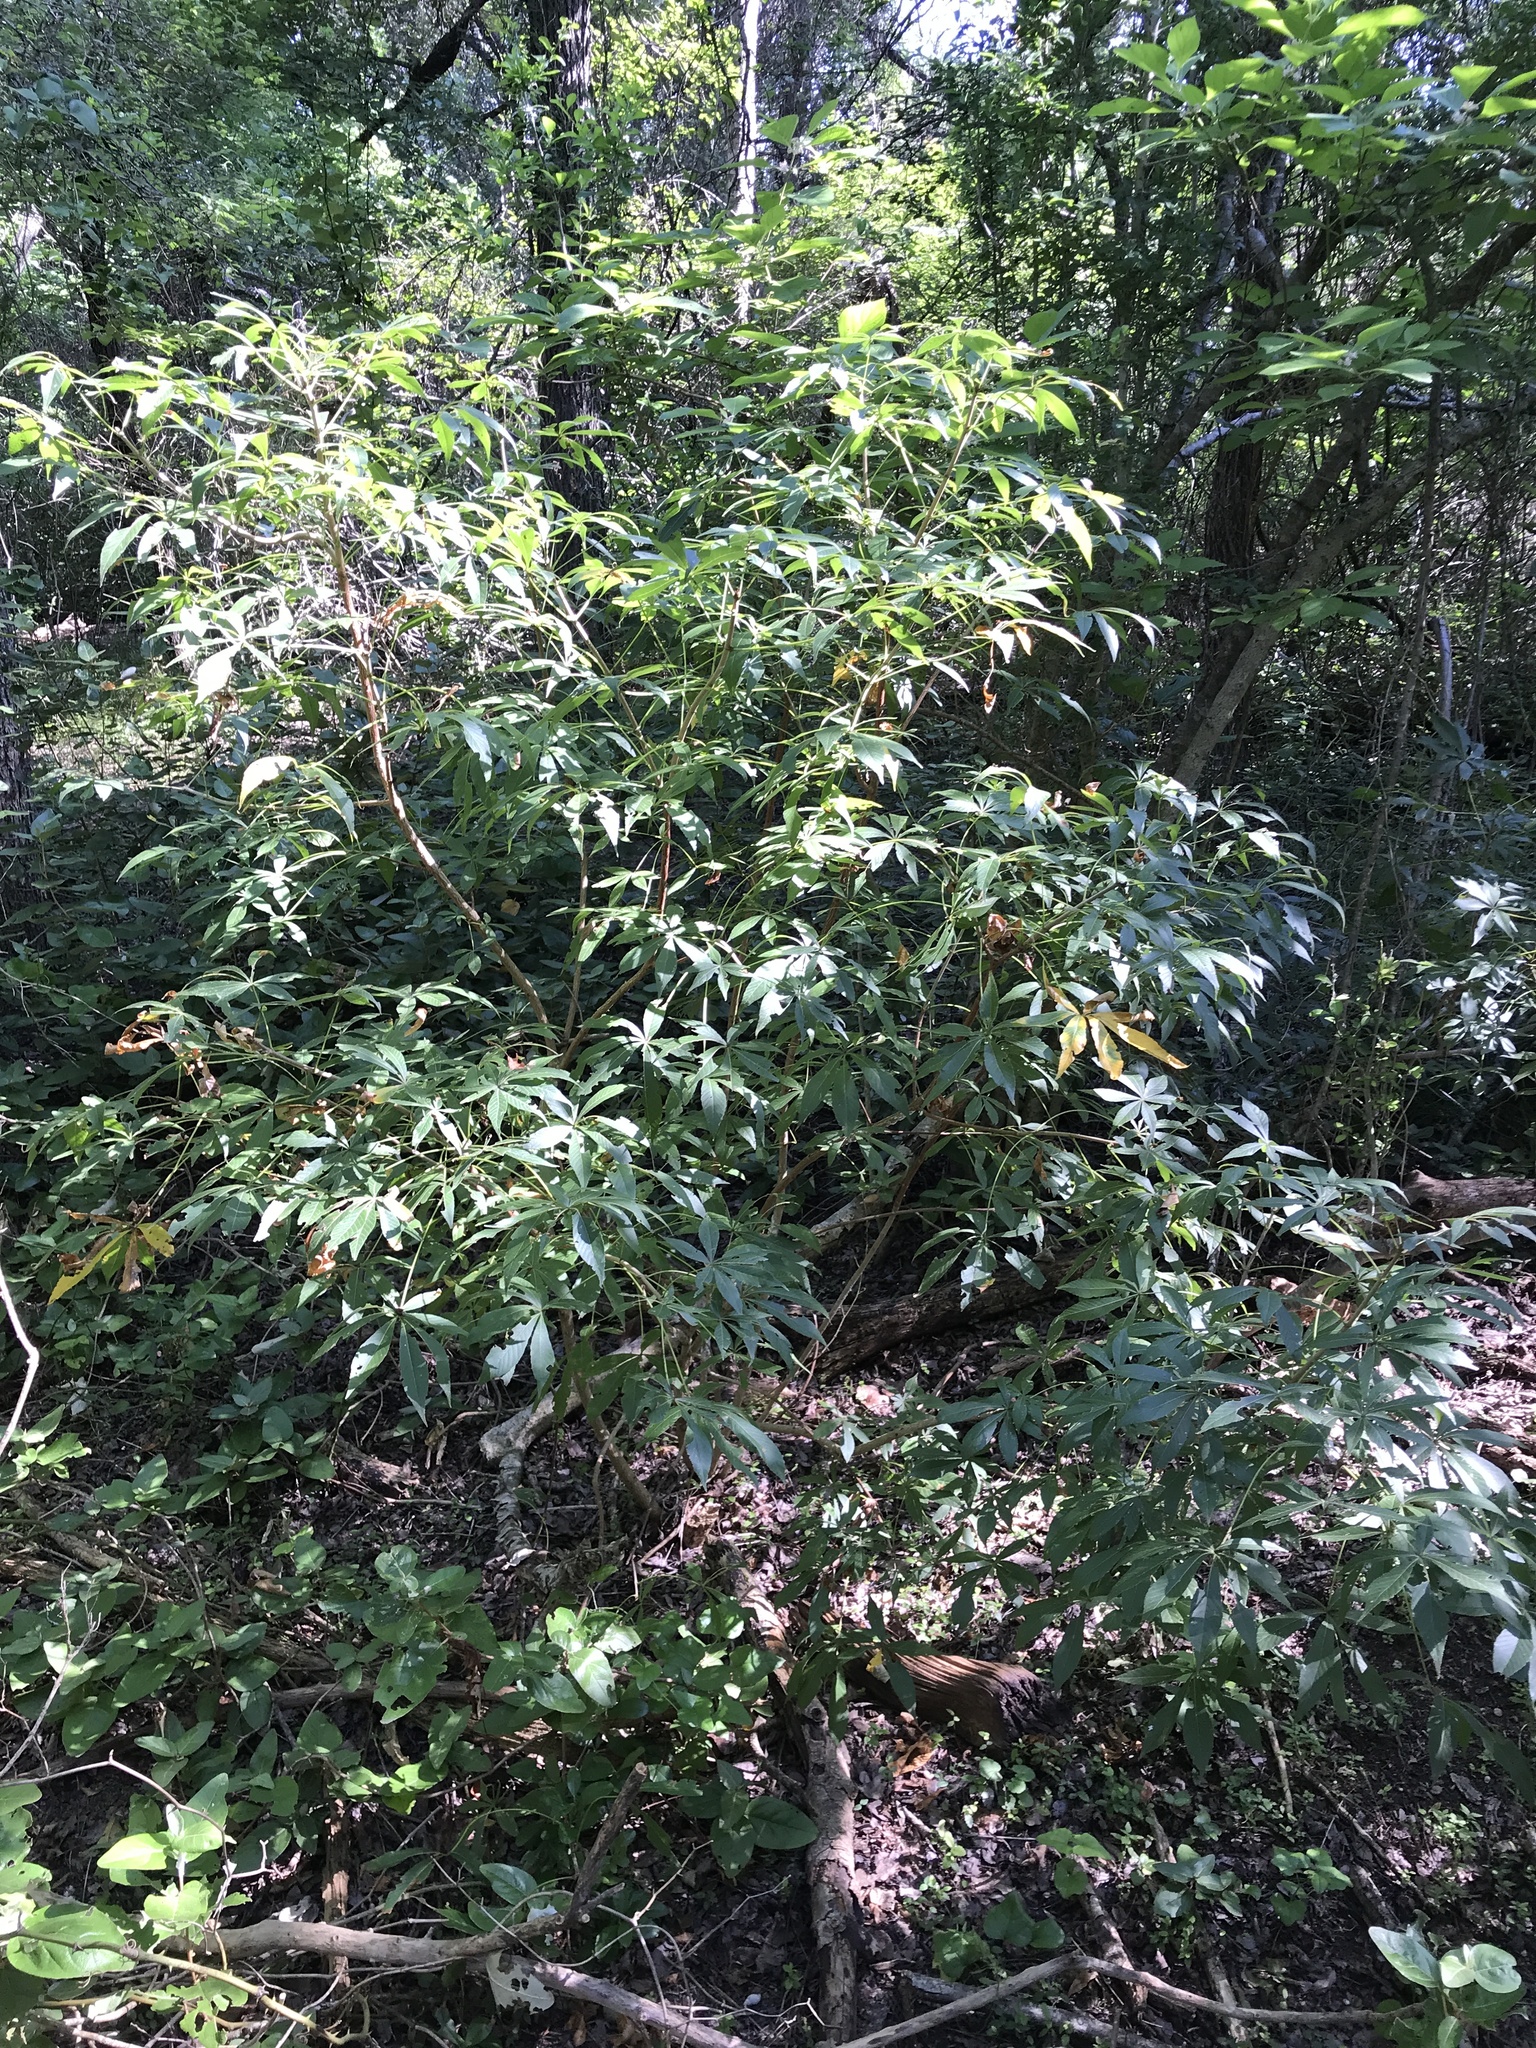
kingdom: Plantae
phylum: Tracheophyta
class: Magnoliopsida
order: Sapindales
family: Sapindaceae
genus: Aesculus
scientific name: Aesculus glabra
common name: Ohio buckeye
